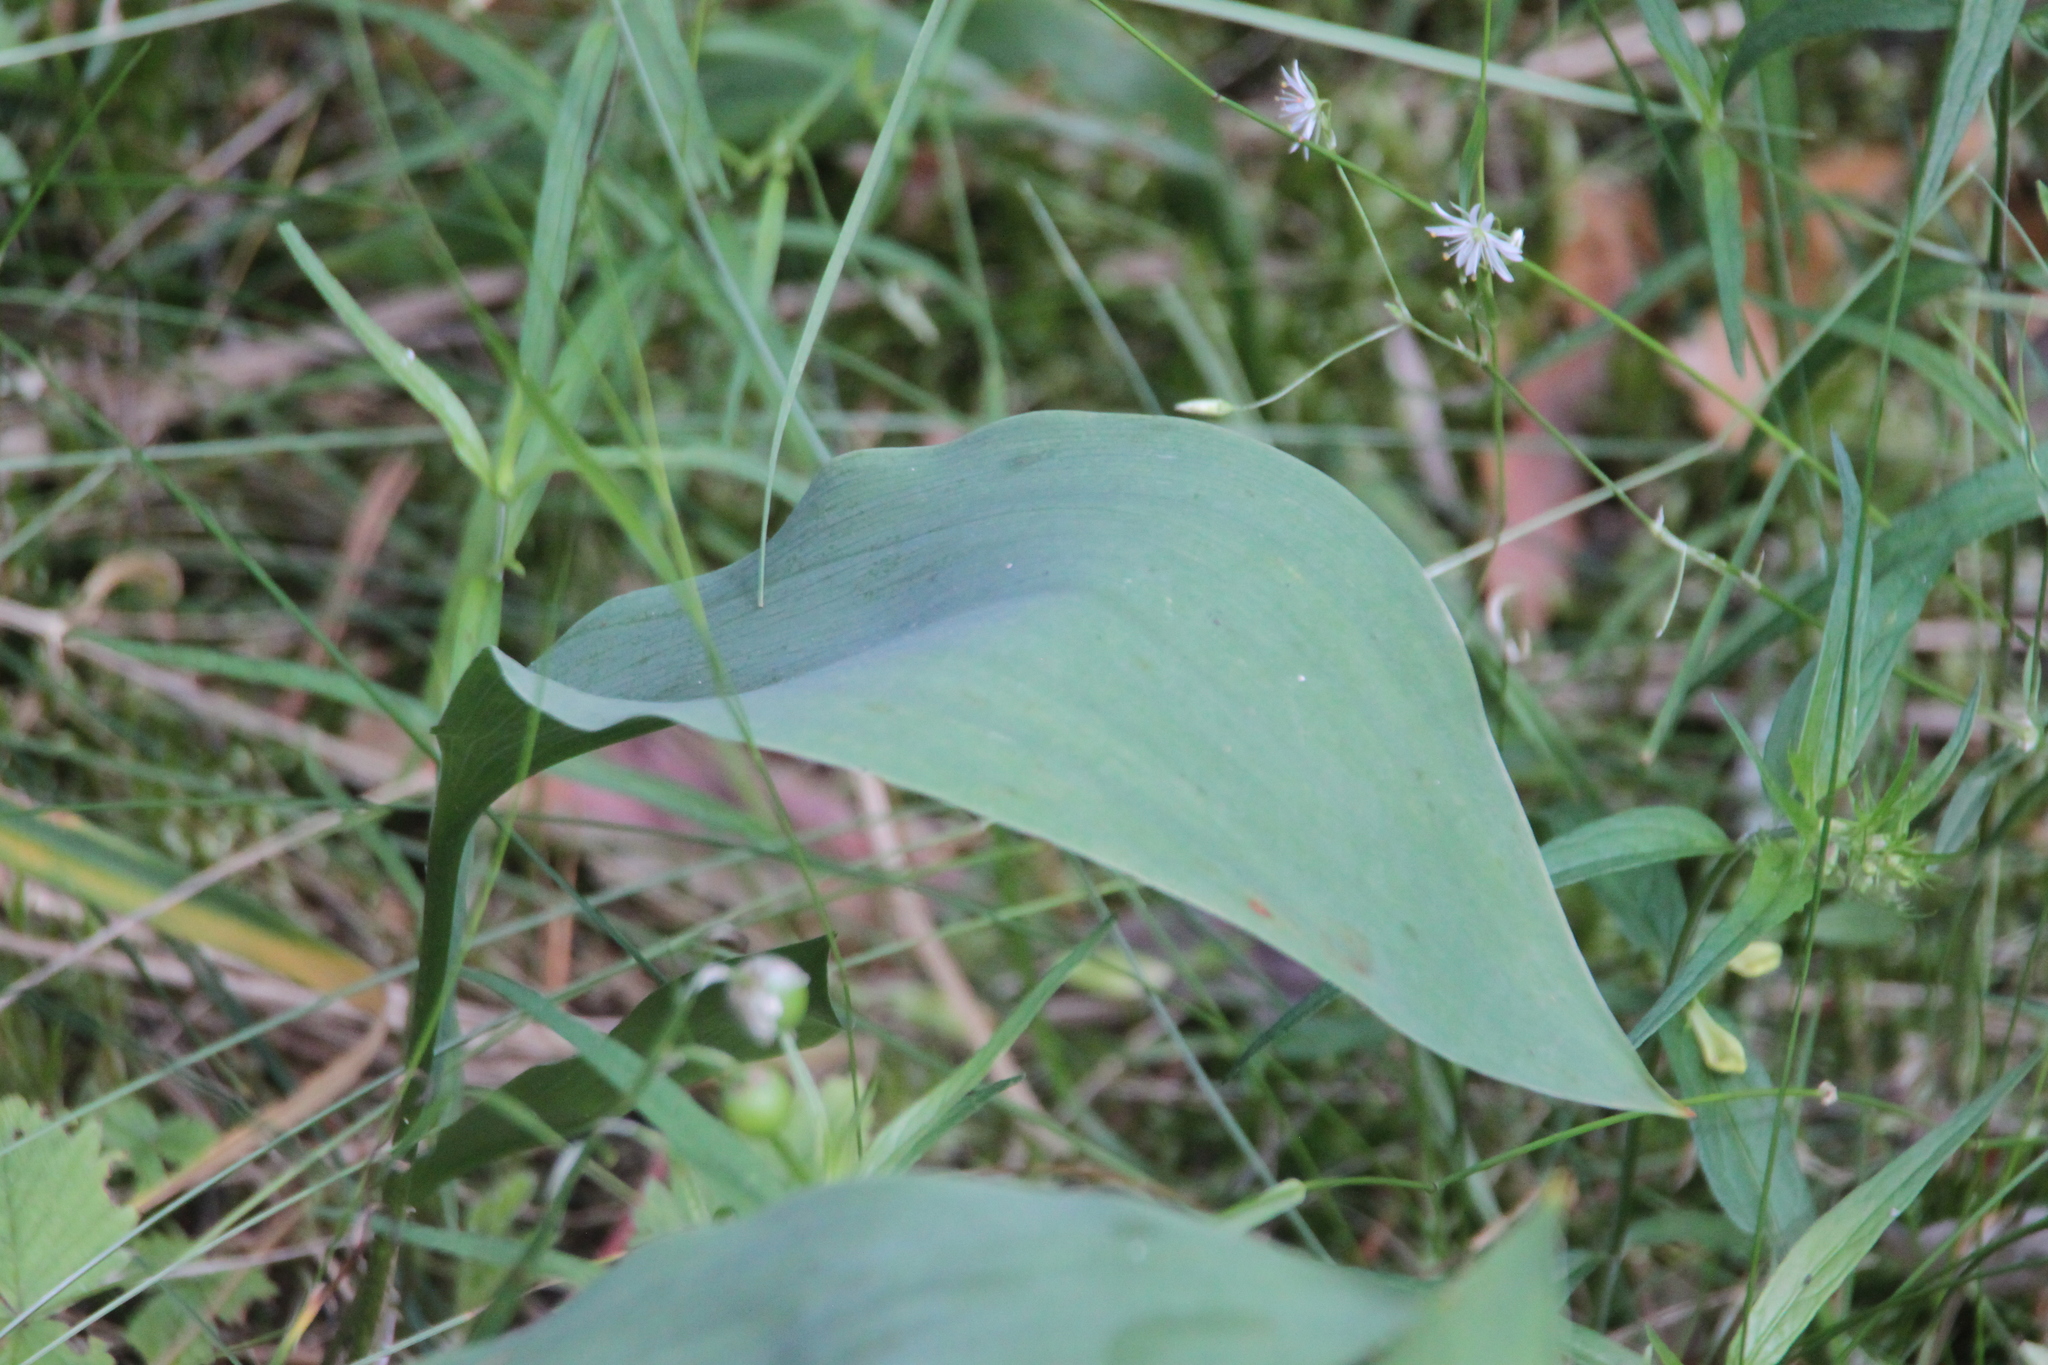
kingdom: Plantae
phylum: Tracheophyta
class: Liliopsida
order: Asparagales
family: Asparagaceae
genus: Convallaria
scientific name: Convallaria majalis
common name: Lily-of-the-valley
